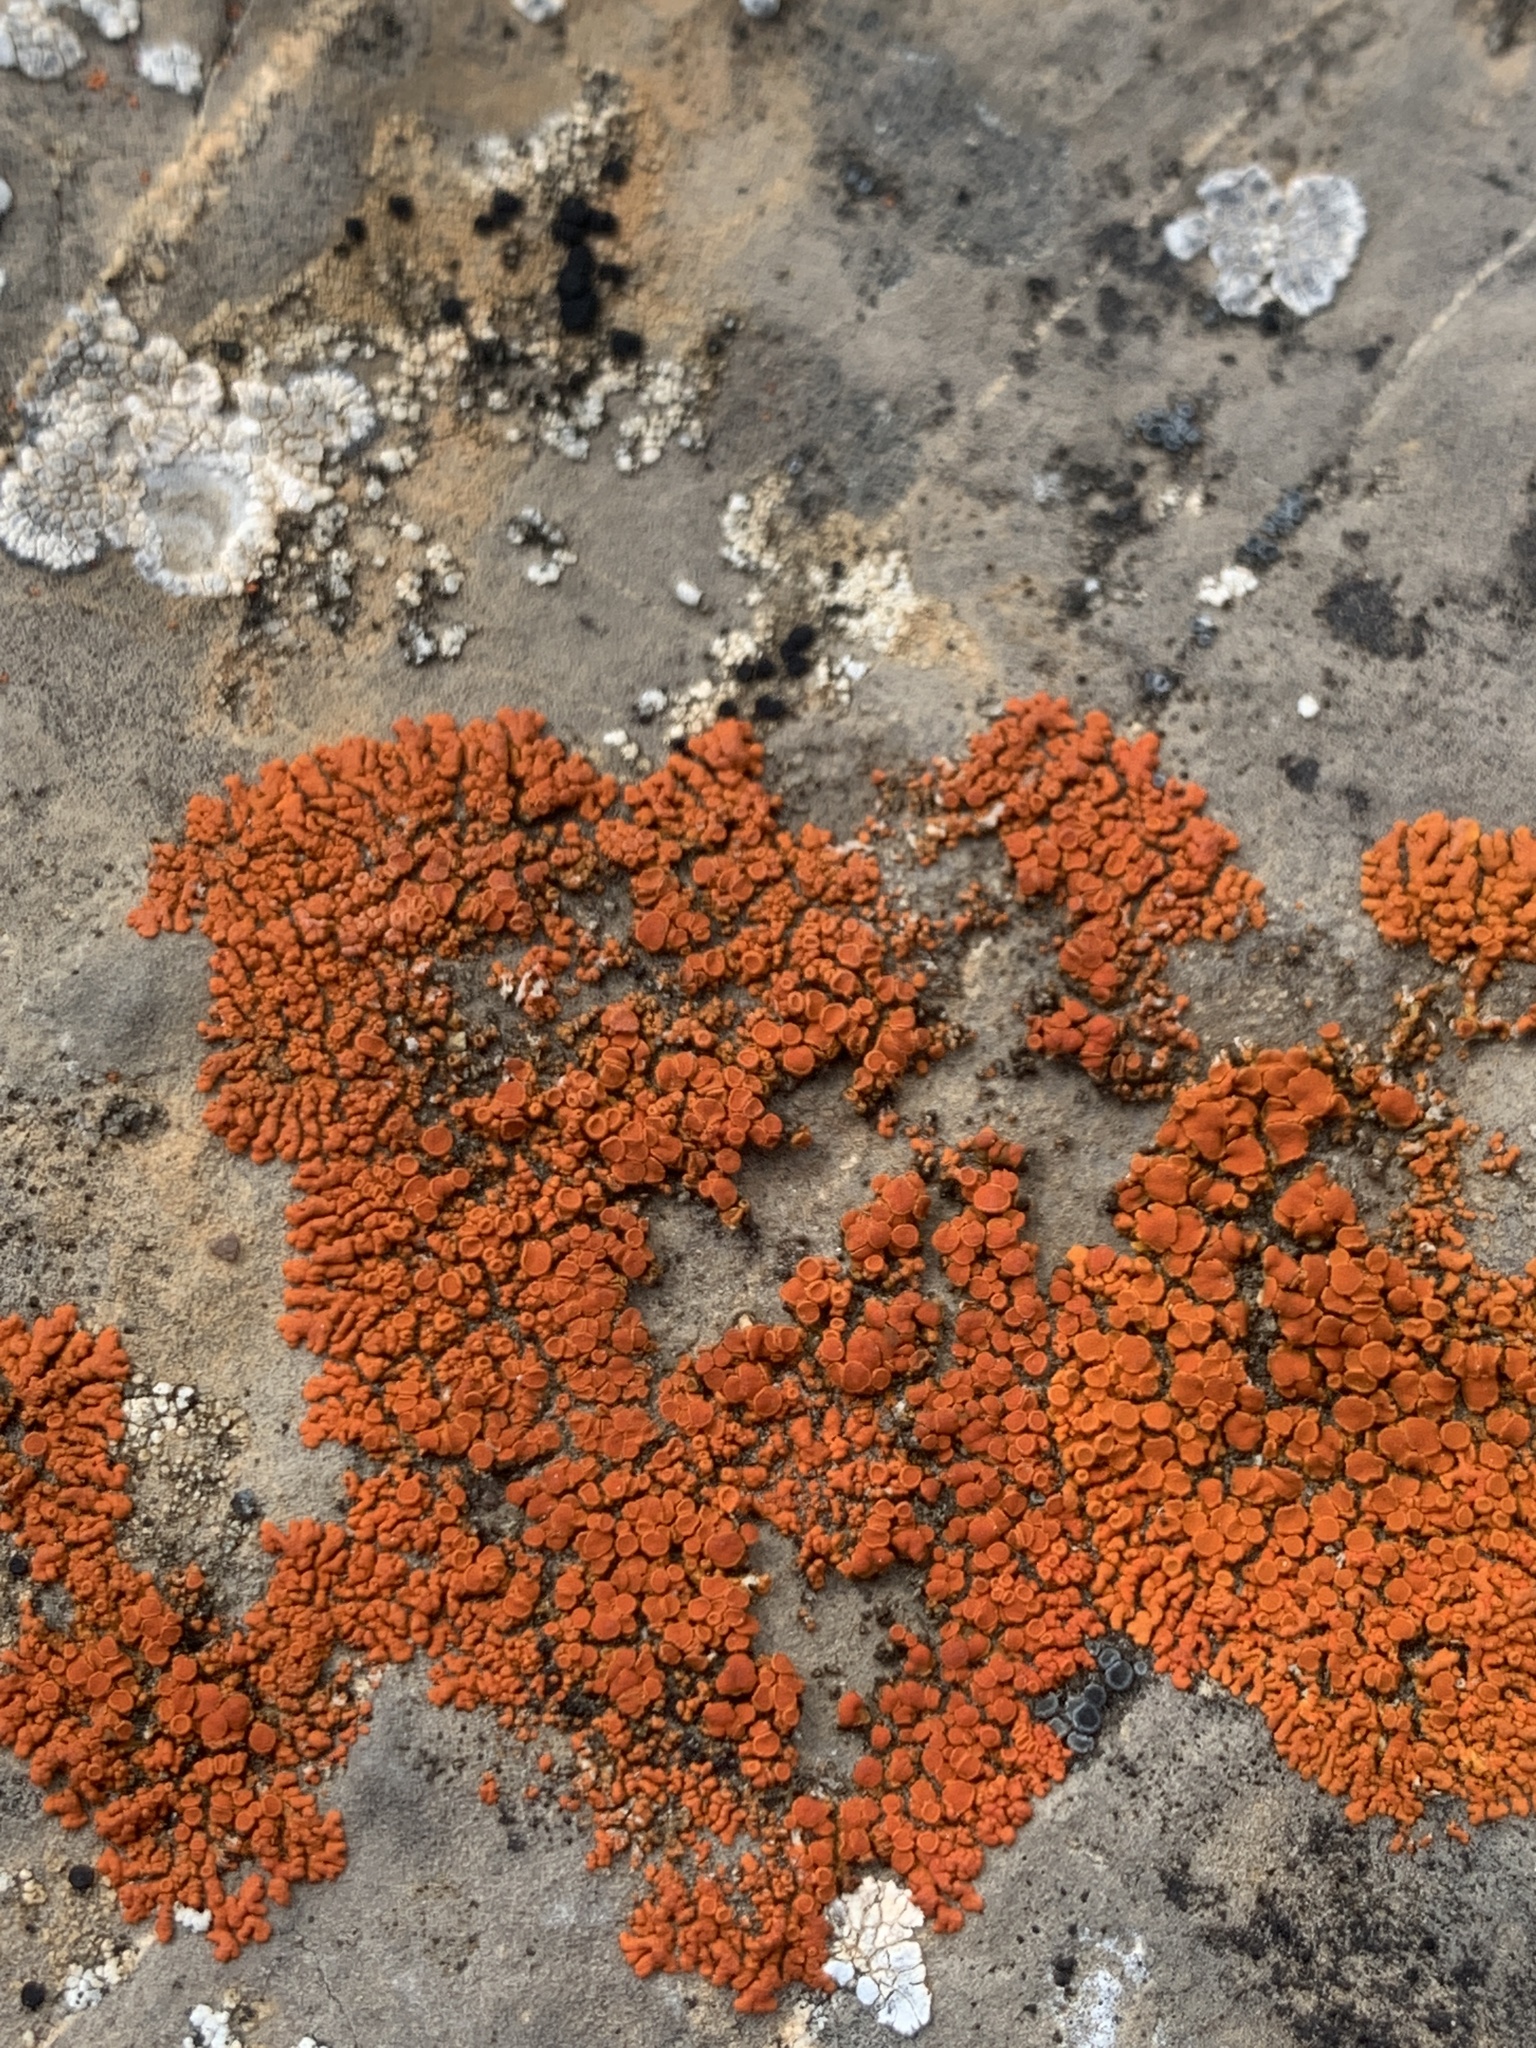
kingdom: Fungi
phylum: Ascomycota
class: Lecanoromycetes
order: Teloschistales
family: Teloschistaceae
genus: Xanthoria
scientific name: Xanthoria elegans
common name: Elegant sunburst lichen
